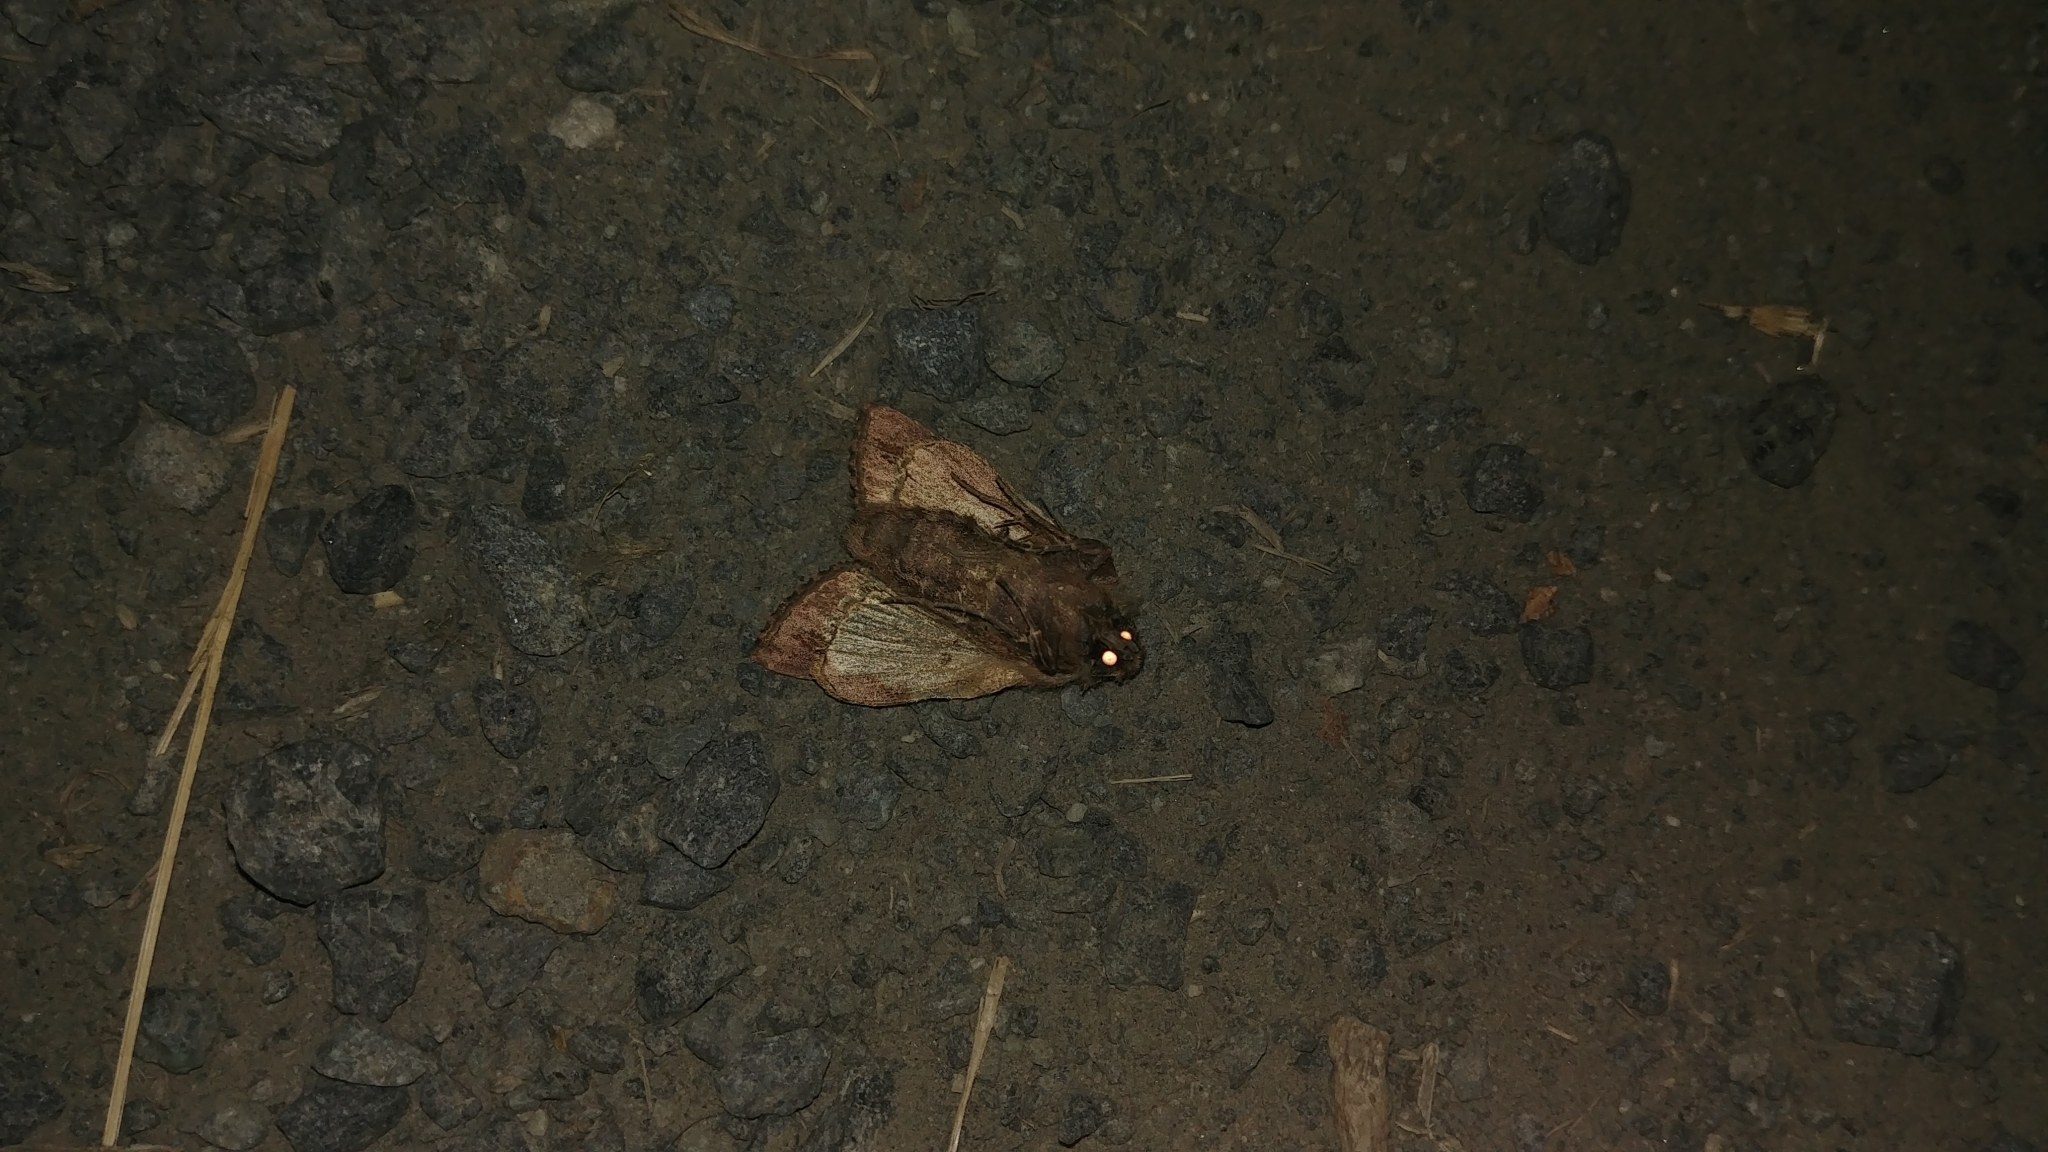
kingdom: Animalia
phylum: Arthropoda
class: Insecta
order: Lepidoptera
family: Noctuidae
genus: Dargida
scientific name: Dargida procinctus
